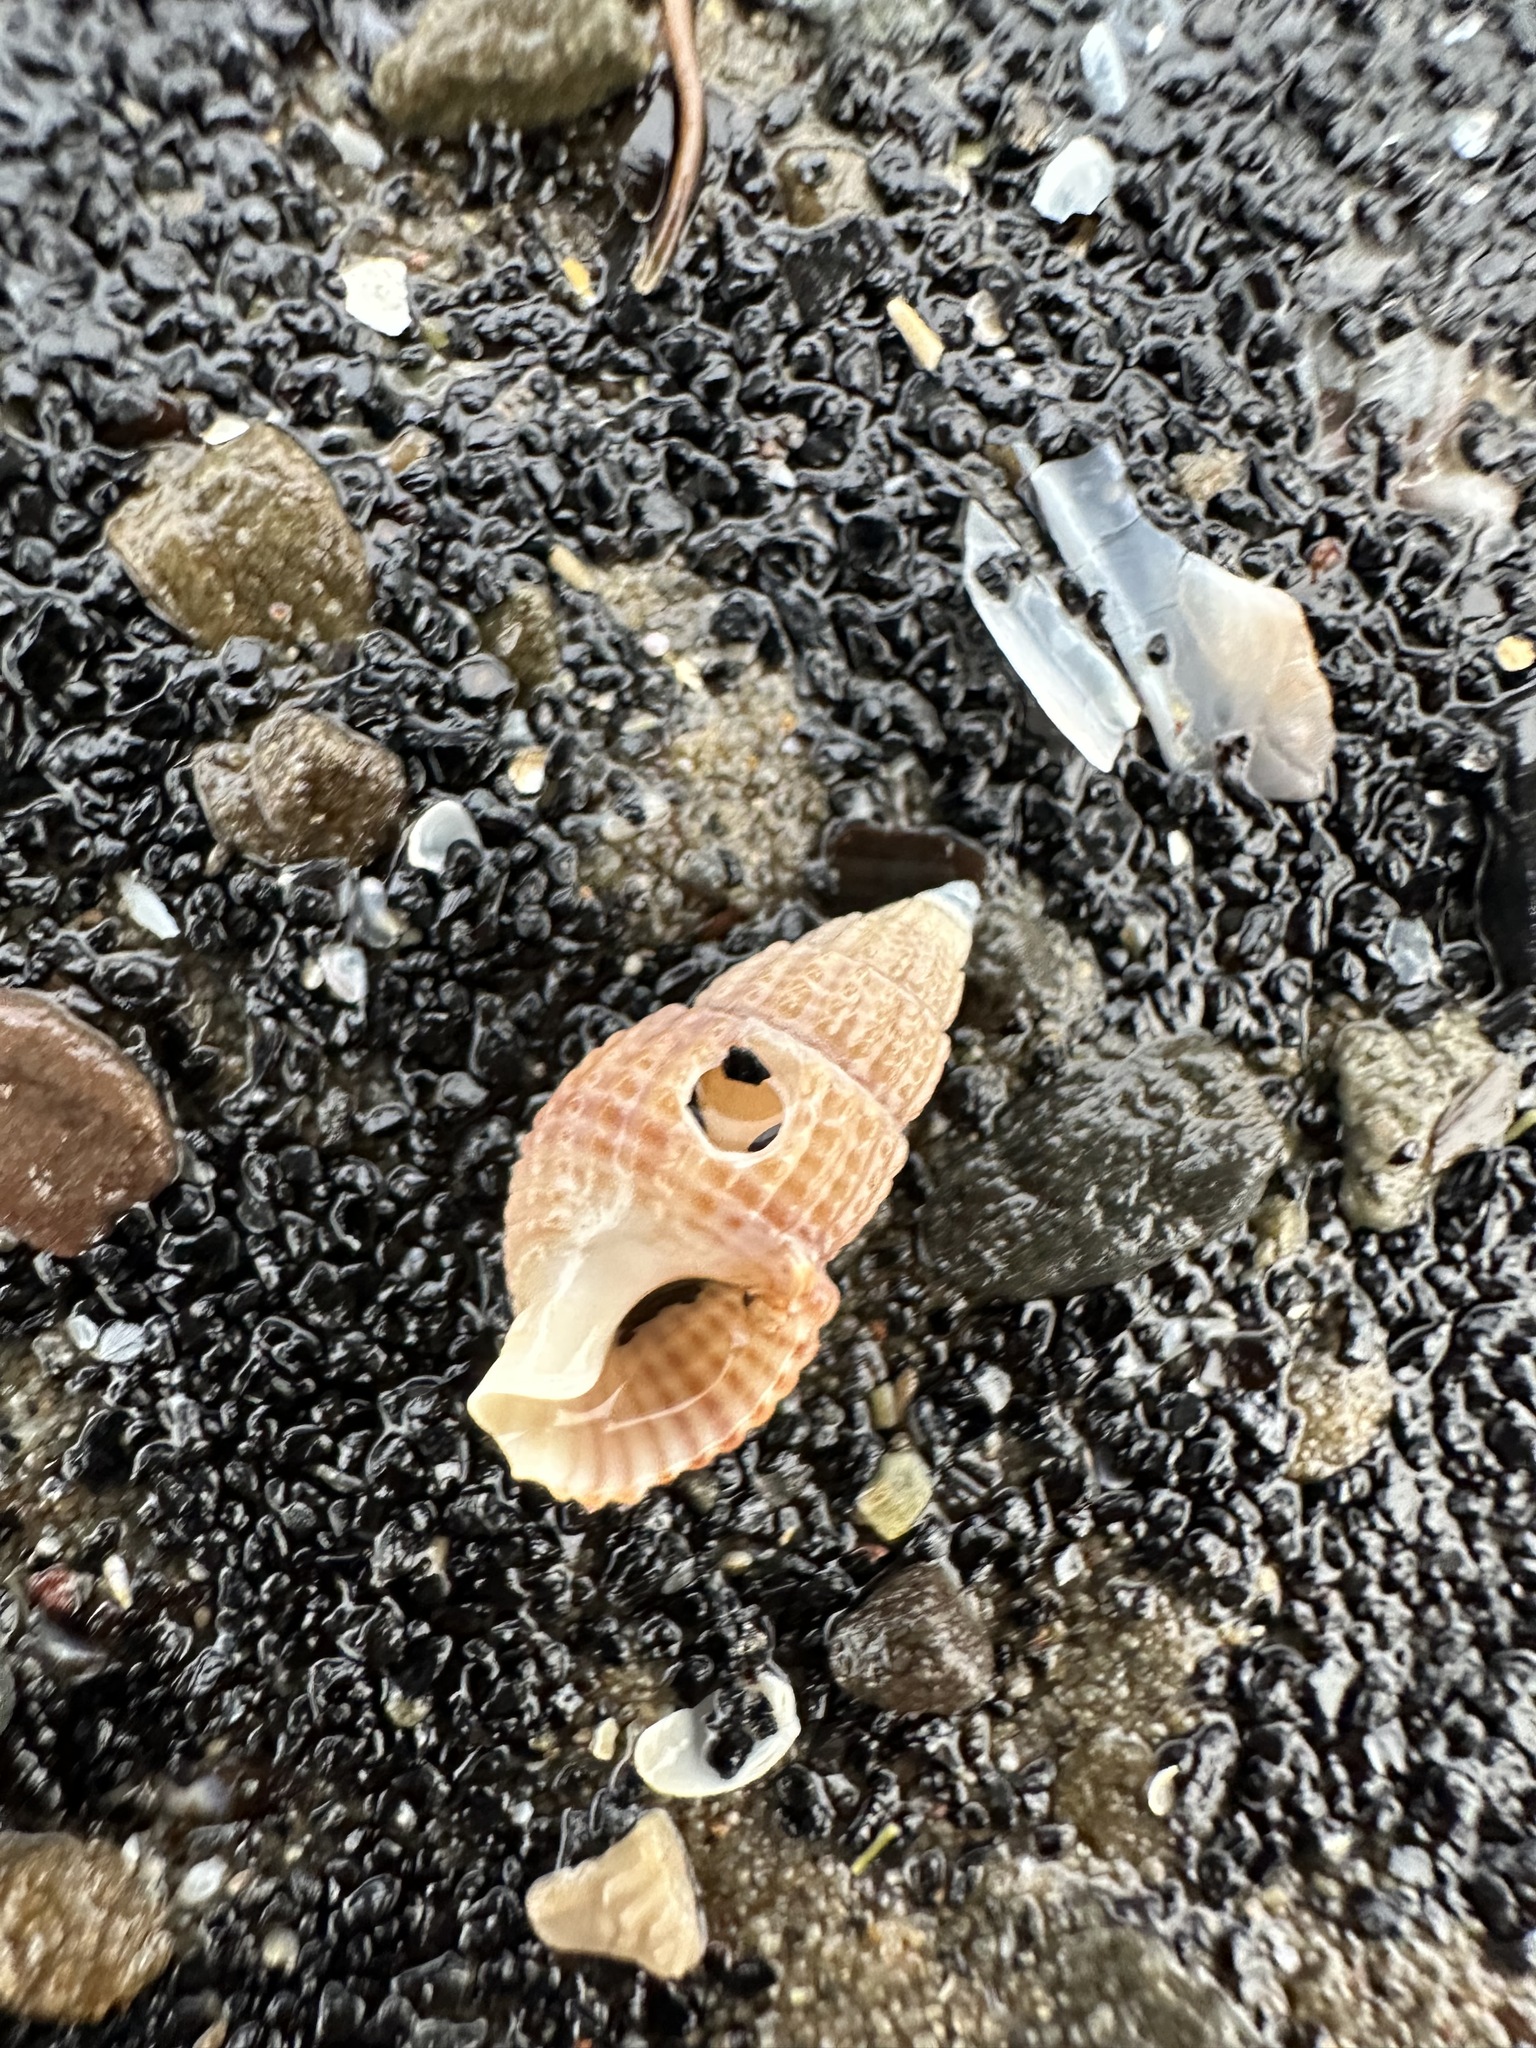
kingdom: Animalia
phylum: Mollusca
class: Gastropoda
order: Neogastropoda
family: Nassariidae
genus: Ilyanassa
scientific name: Ilyanassa trivittata
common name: Three-line mudsnail
